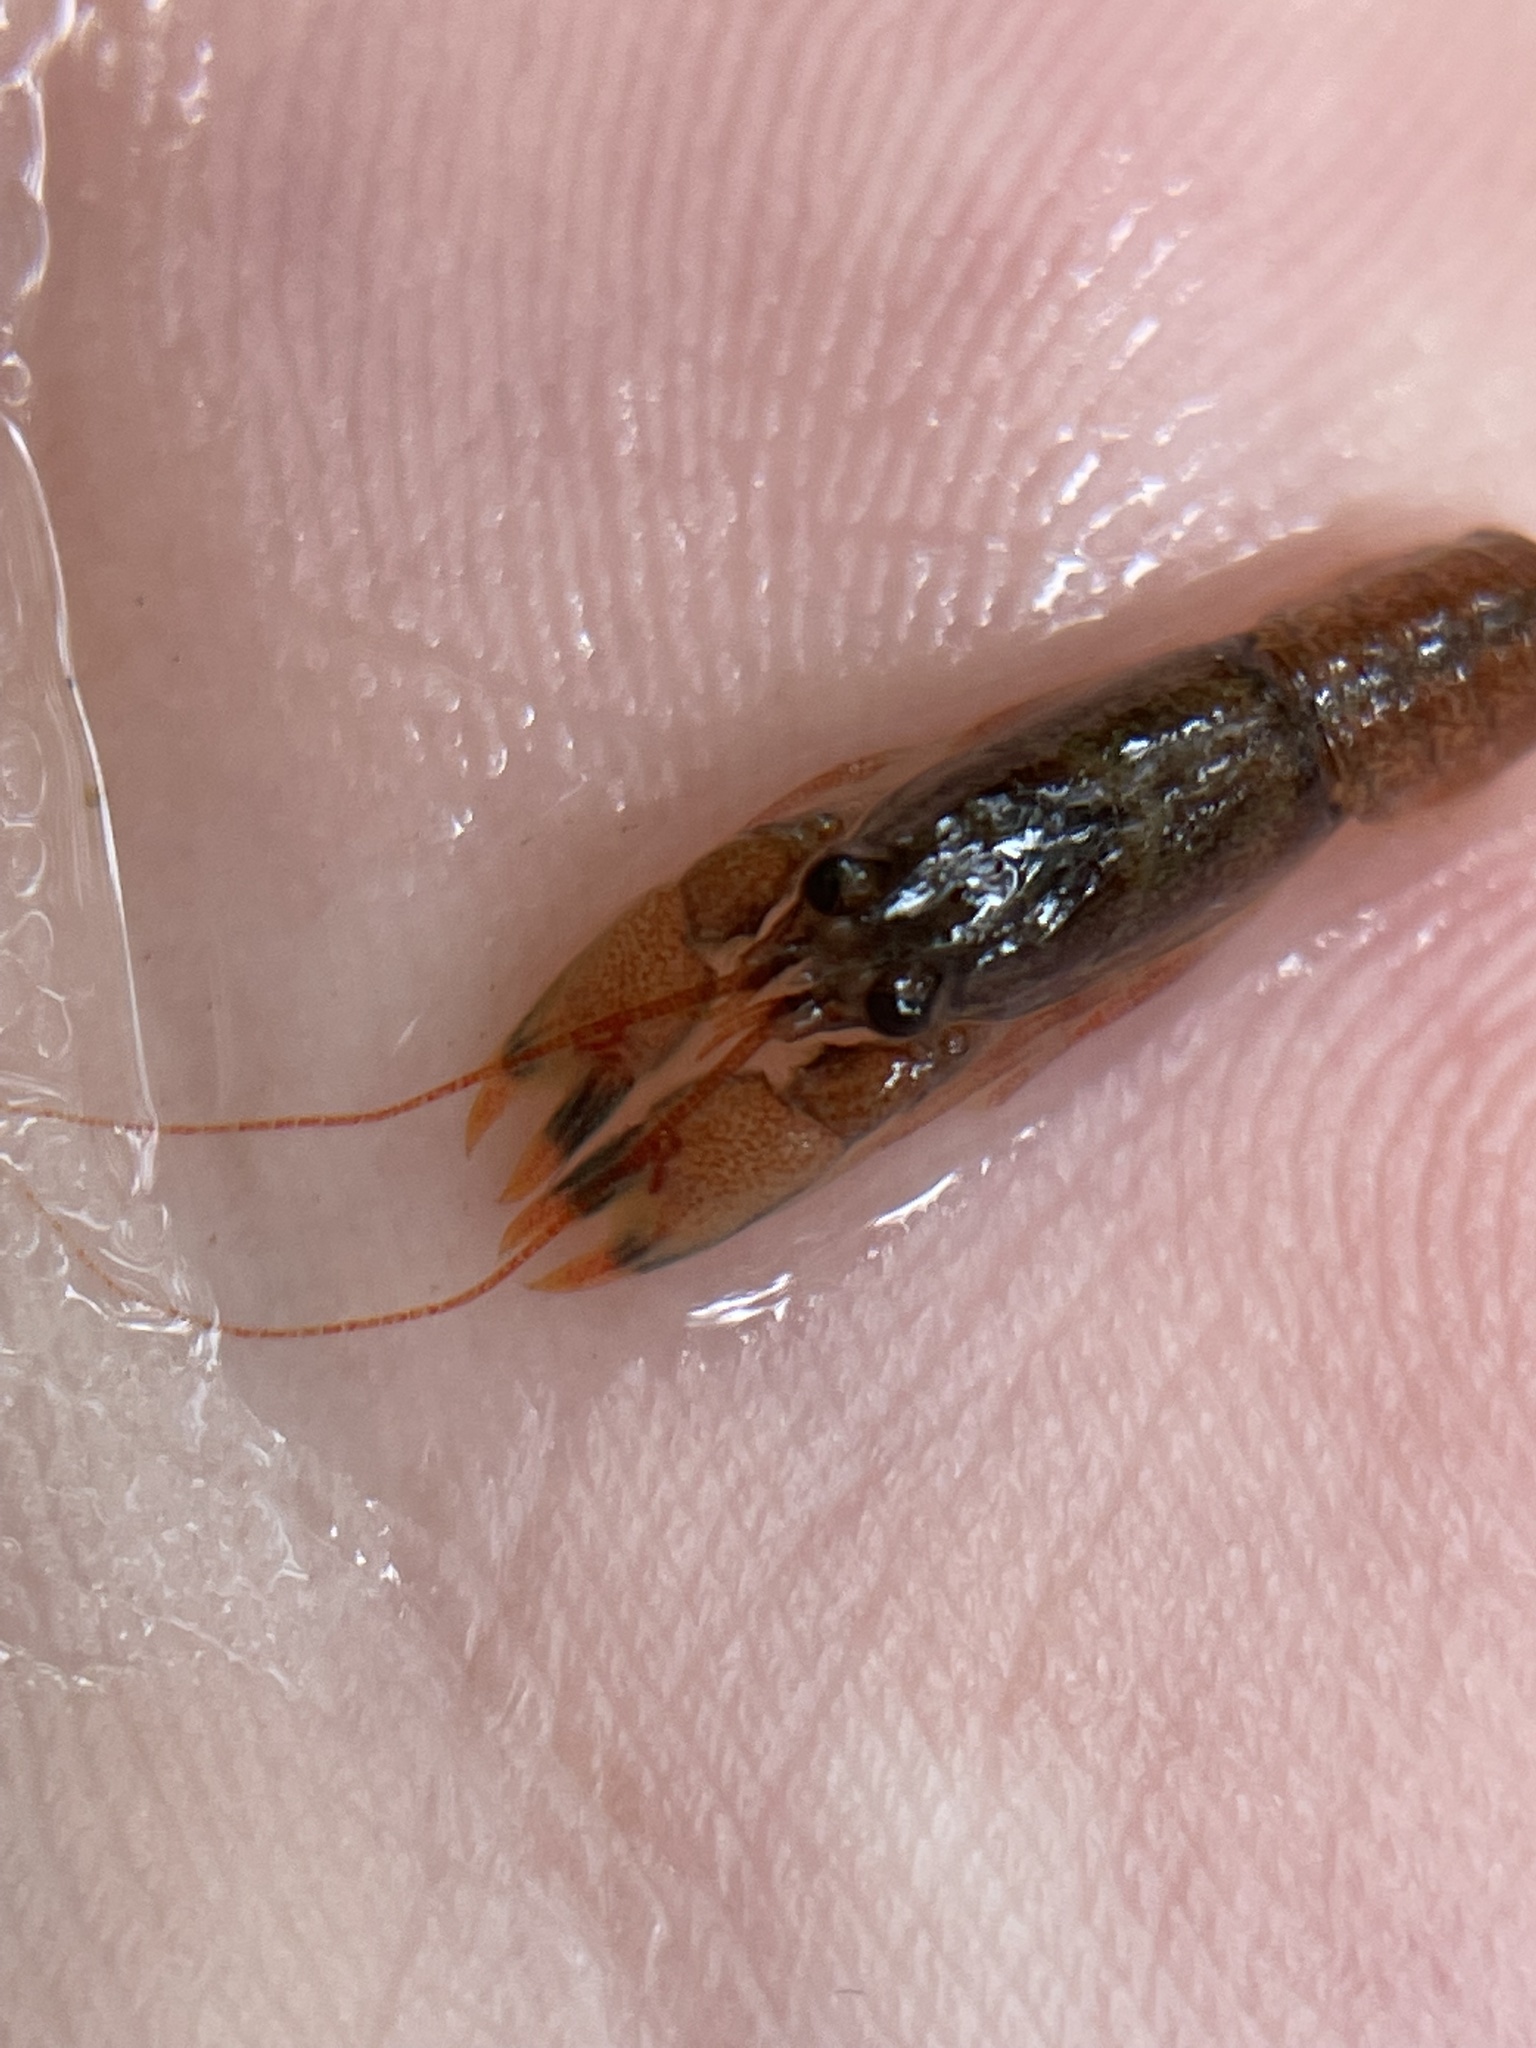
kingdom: Animalia
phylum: Arthropoda
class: Malacostraca
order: Decapoda
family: Cambaridae
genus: Faxonius
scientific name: Faxonius compressus
